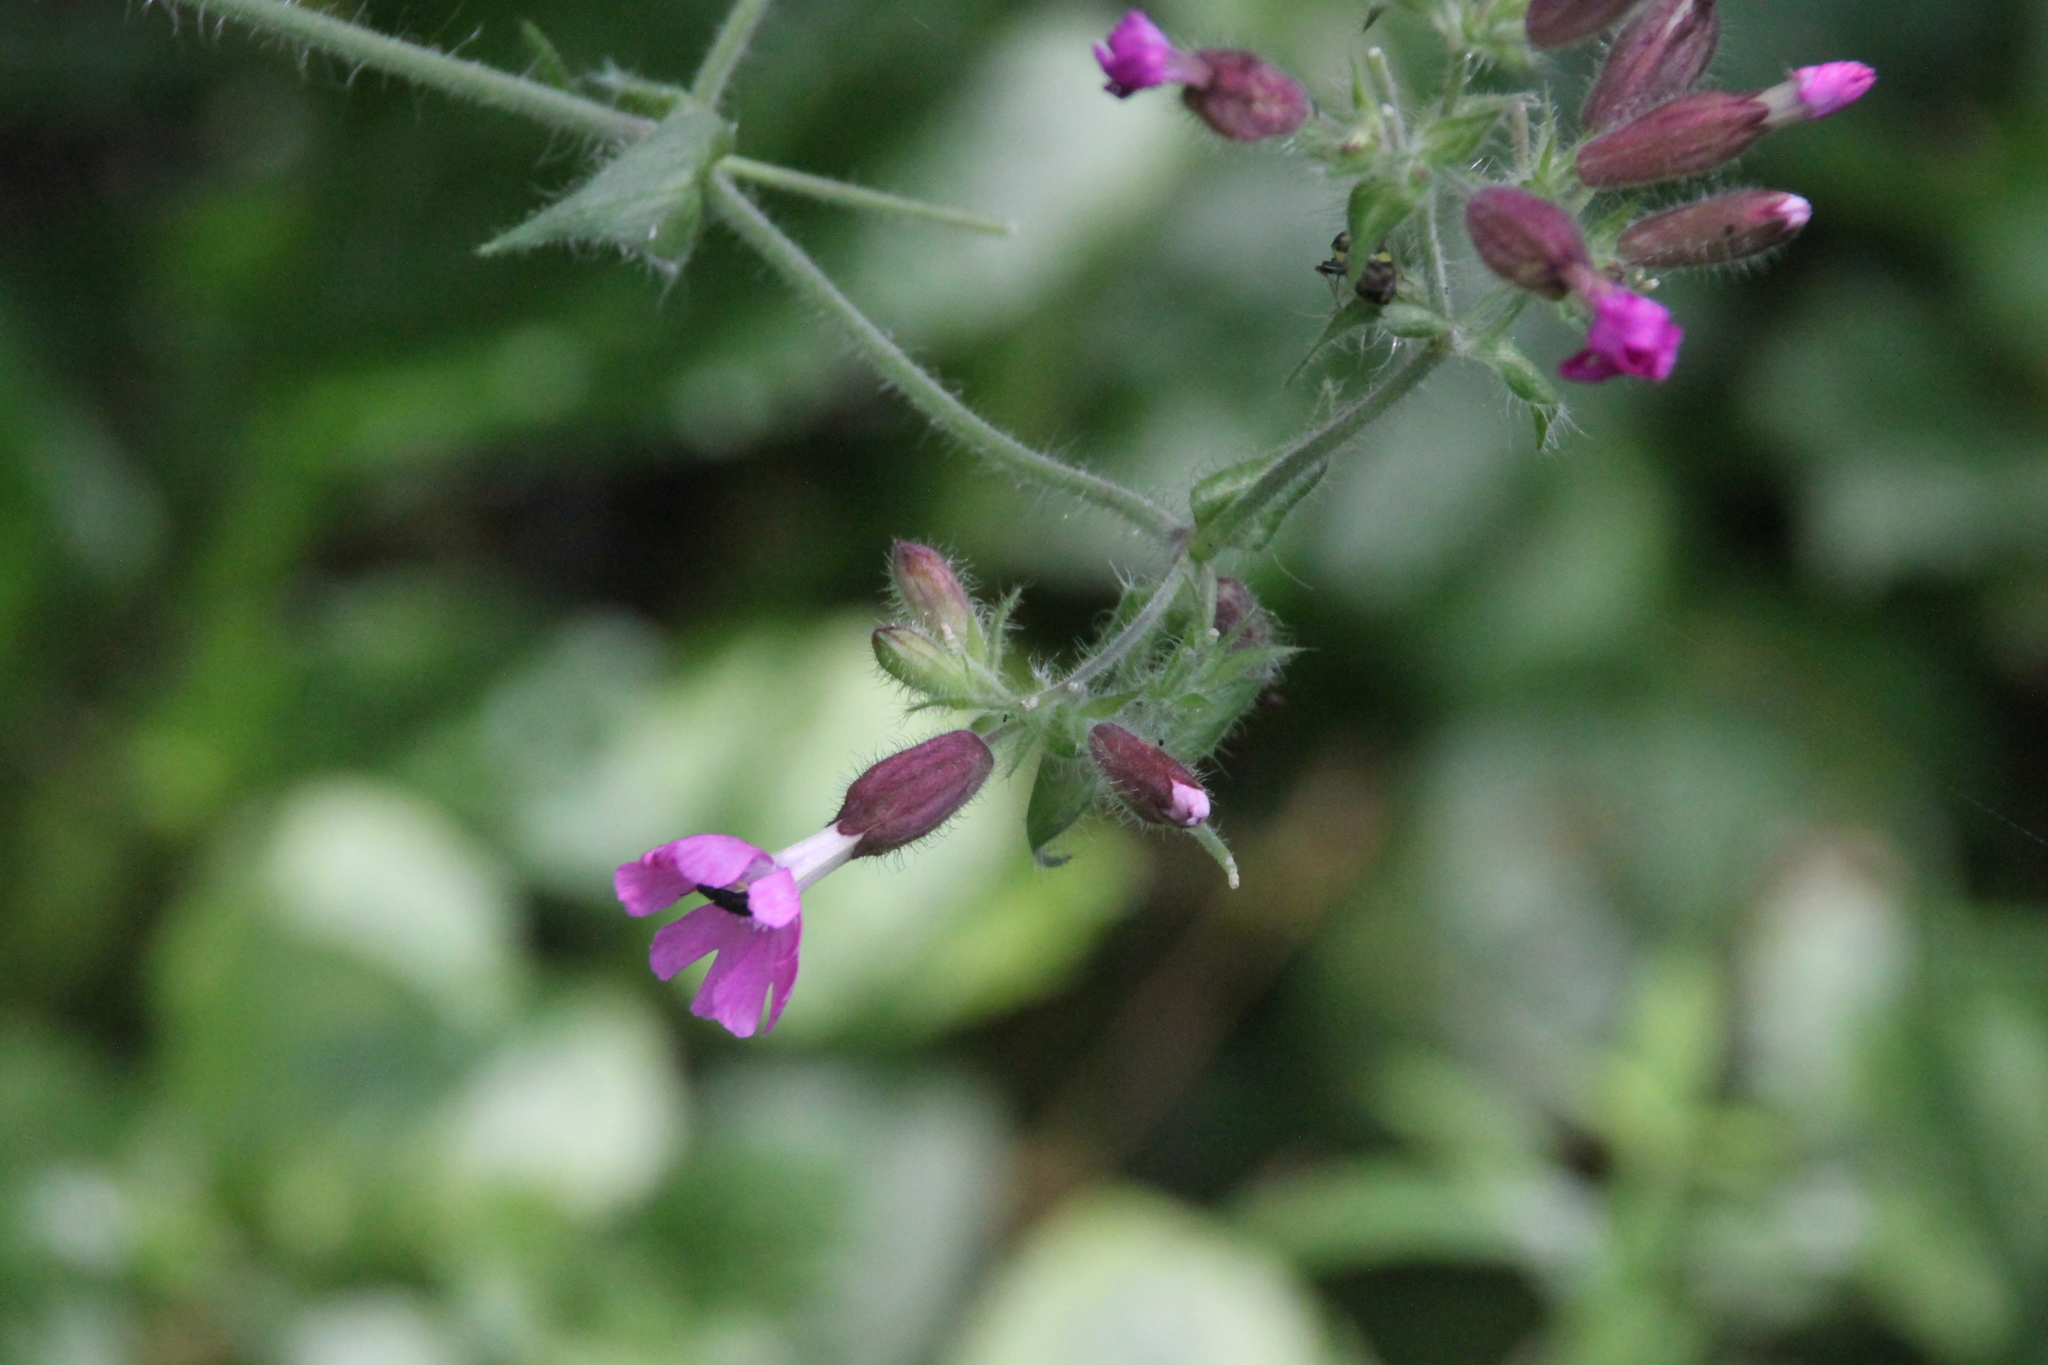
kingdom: Plantae
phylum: Tracheophyta
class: Magnoliopsida
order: Caryophyllales
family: Caryophyllaceae
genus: Silene
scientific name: Silene dioica
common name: Red campion
